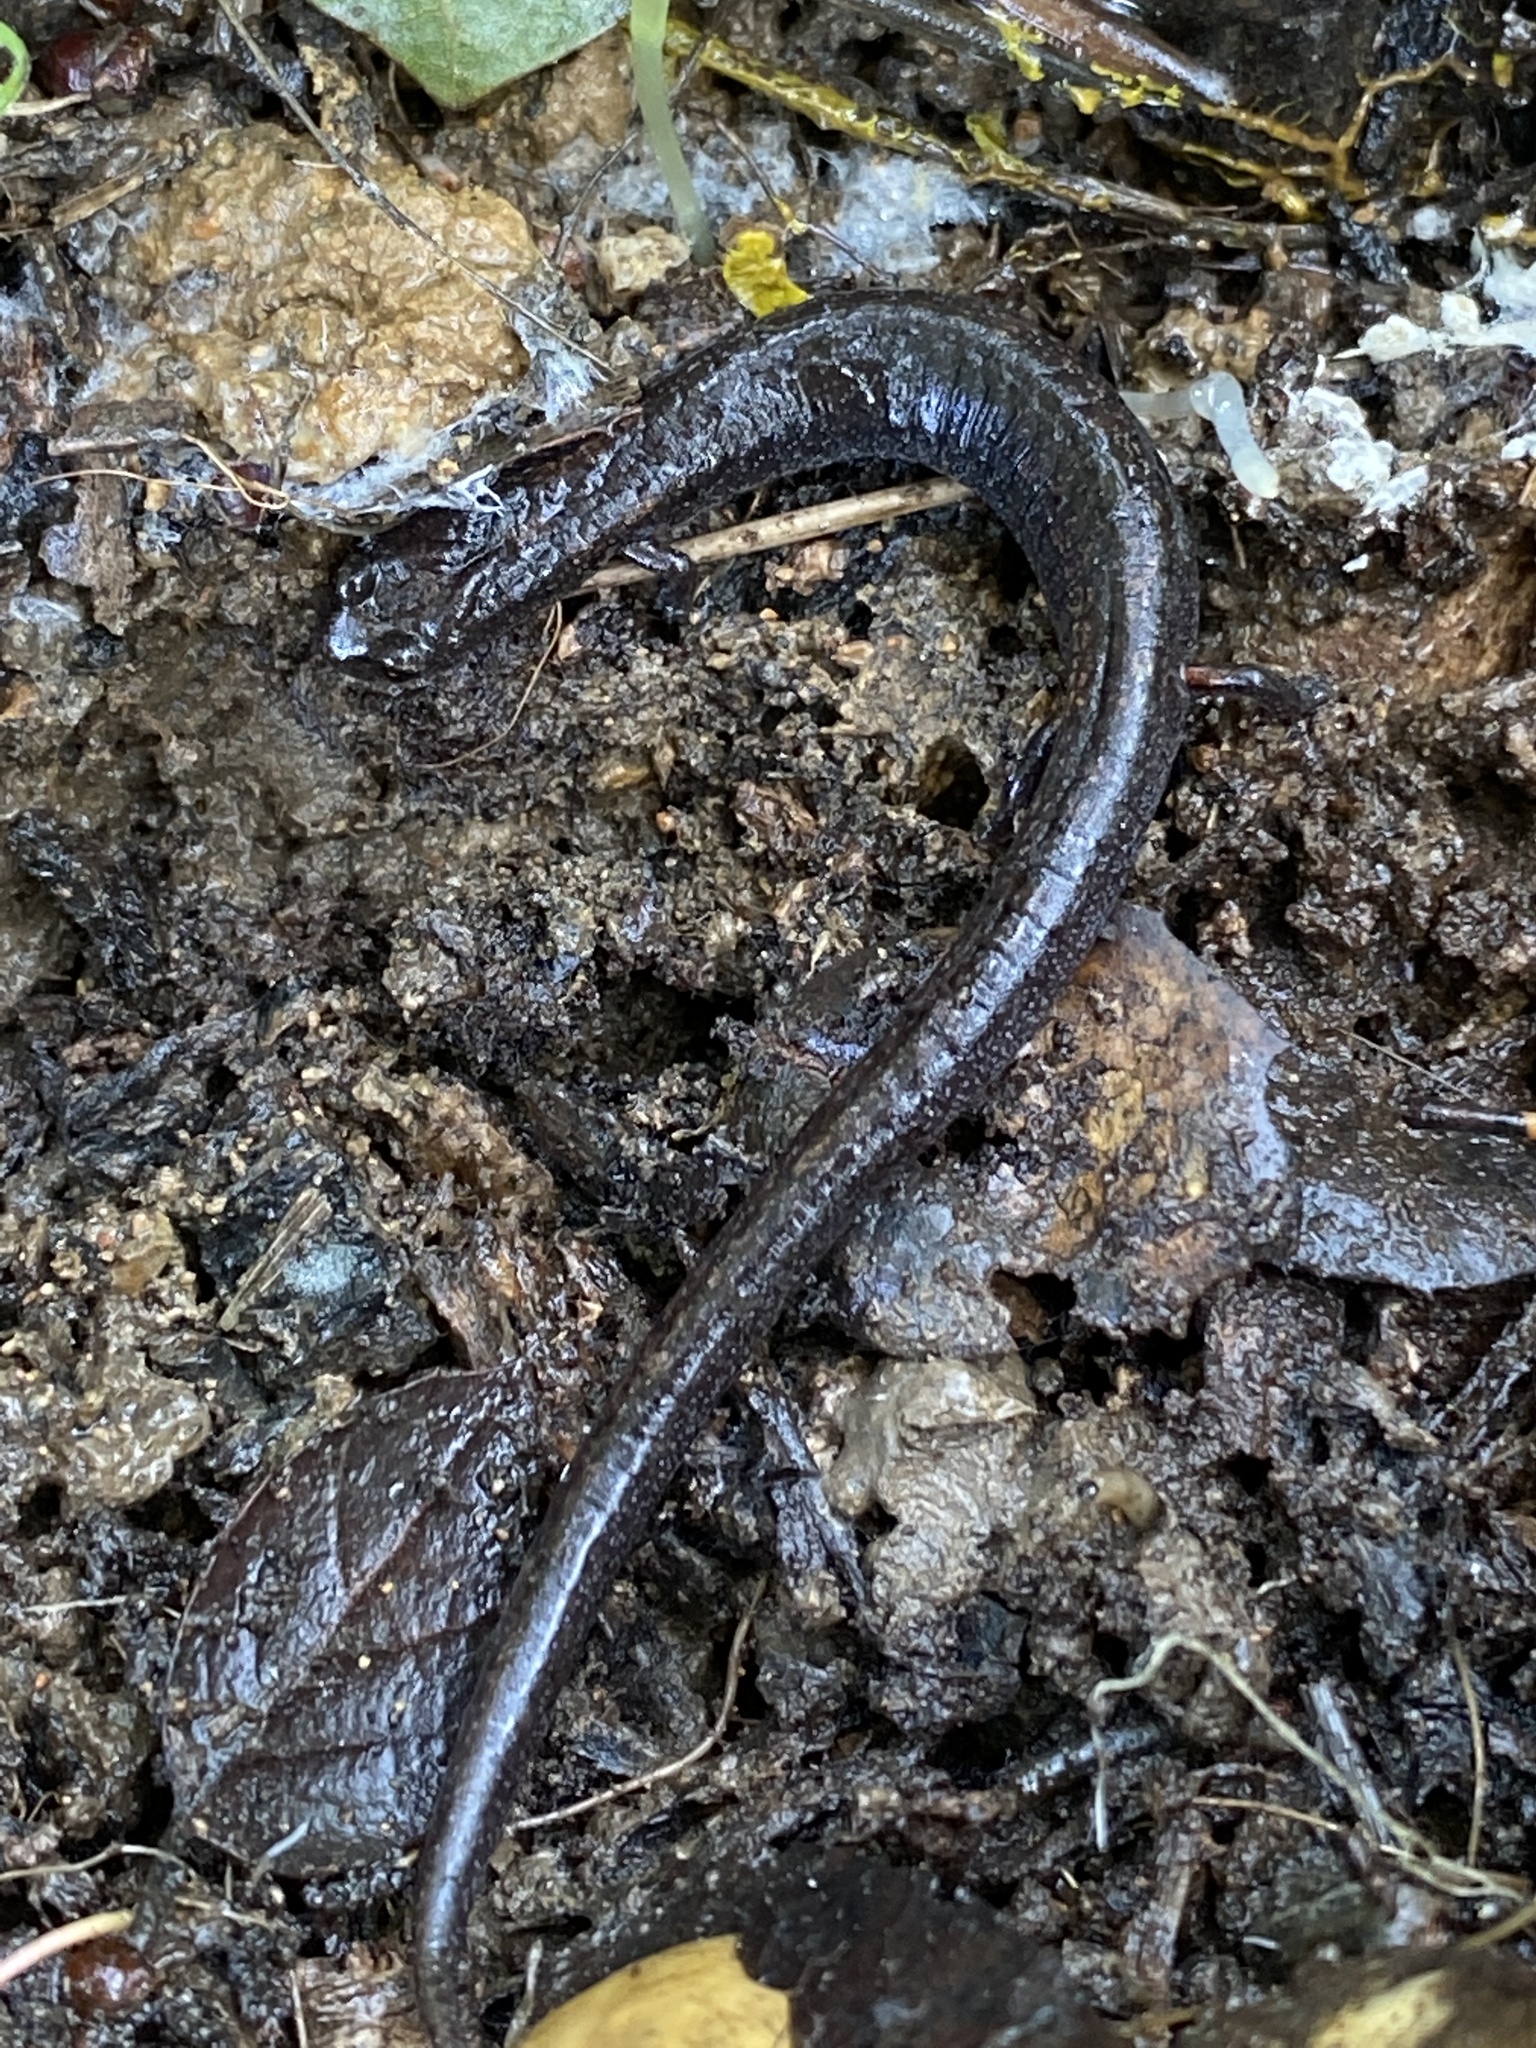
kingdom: Animalia
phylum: Chordata
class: Amphibia
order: Caudata
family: Plethodontidae
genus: Batrachoseps
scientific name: Batrachoseps attenuatus
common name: California slender salamander
